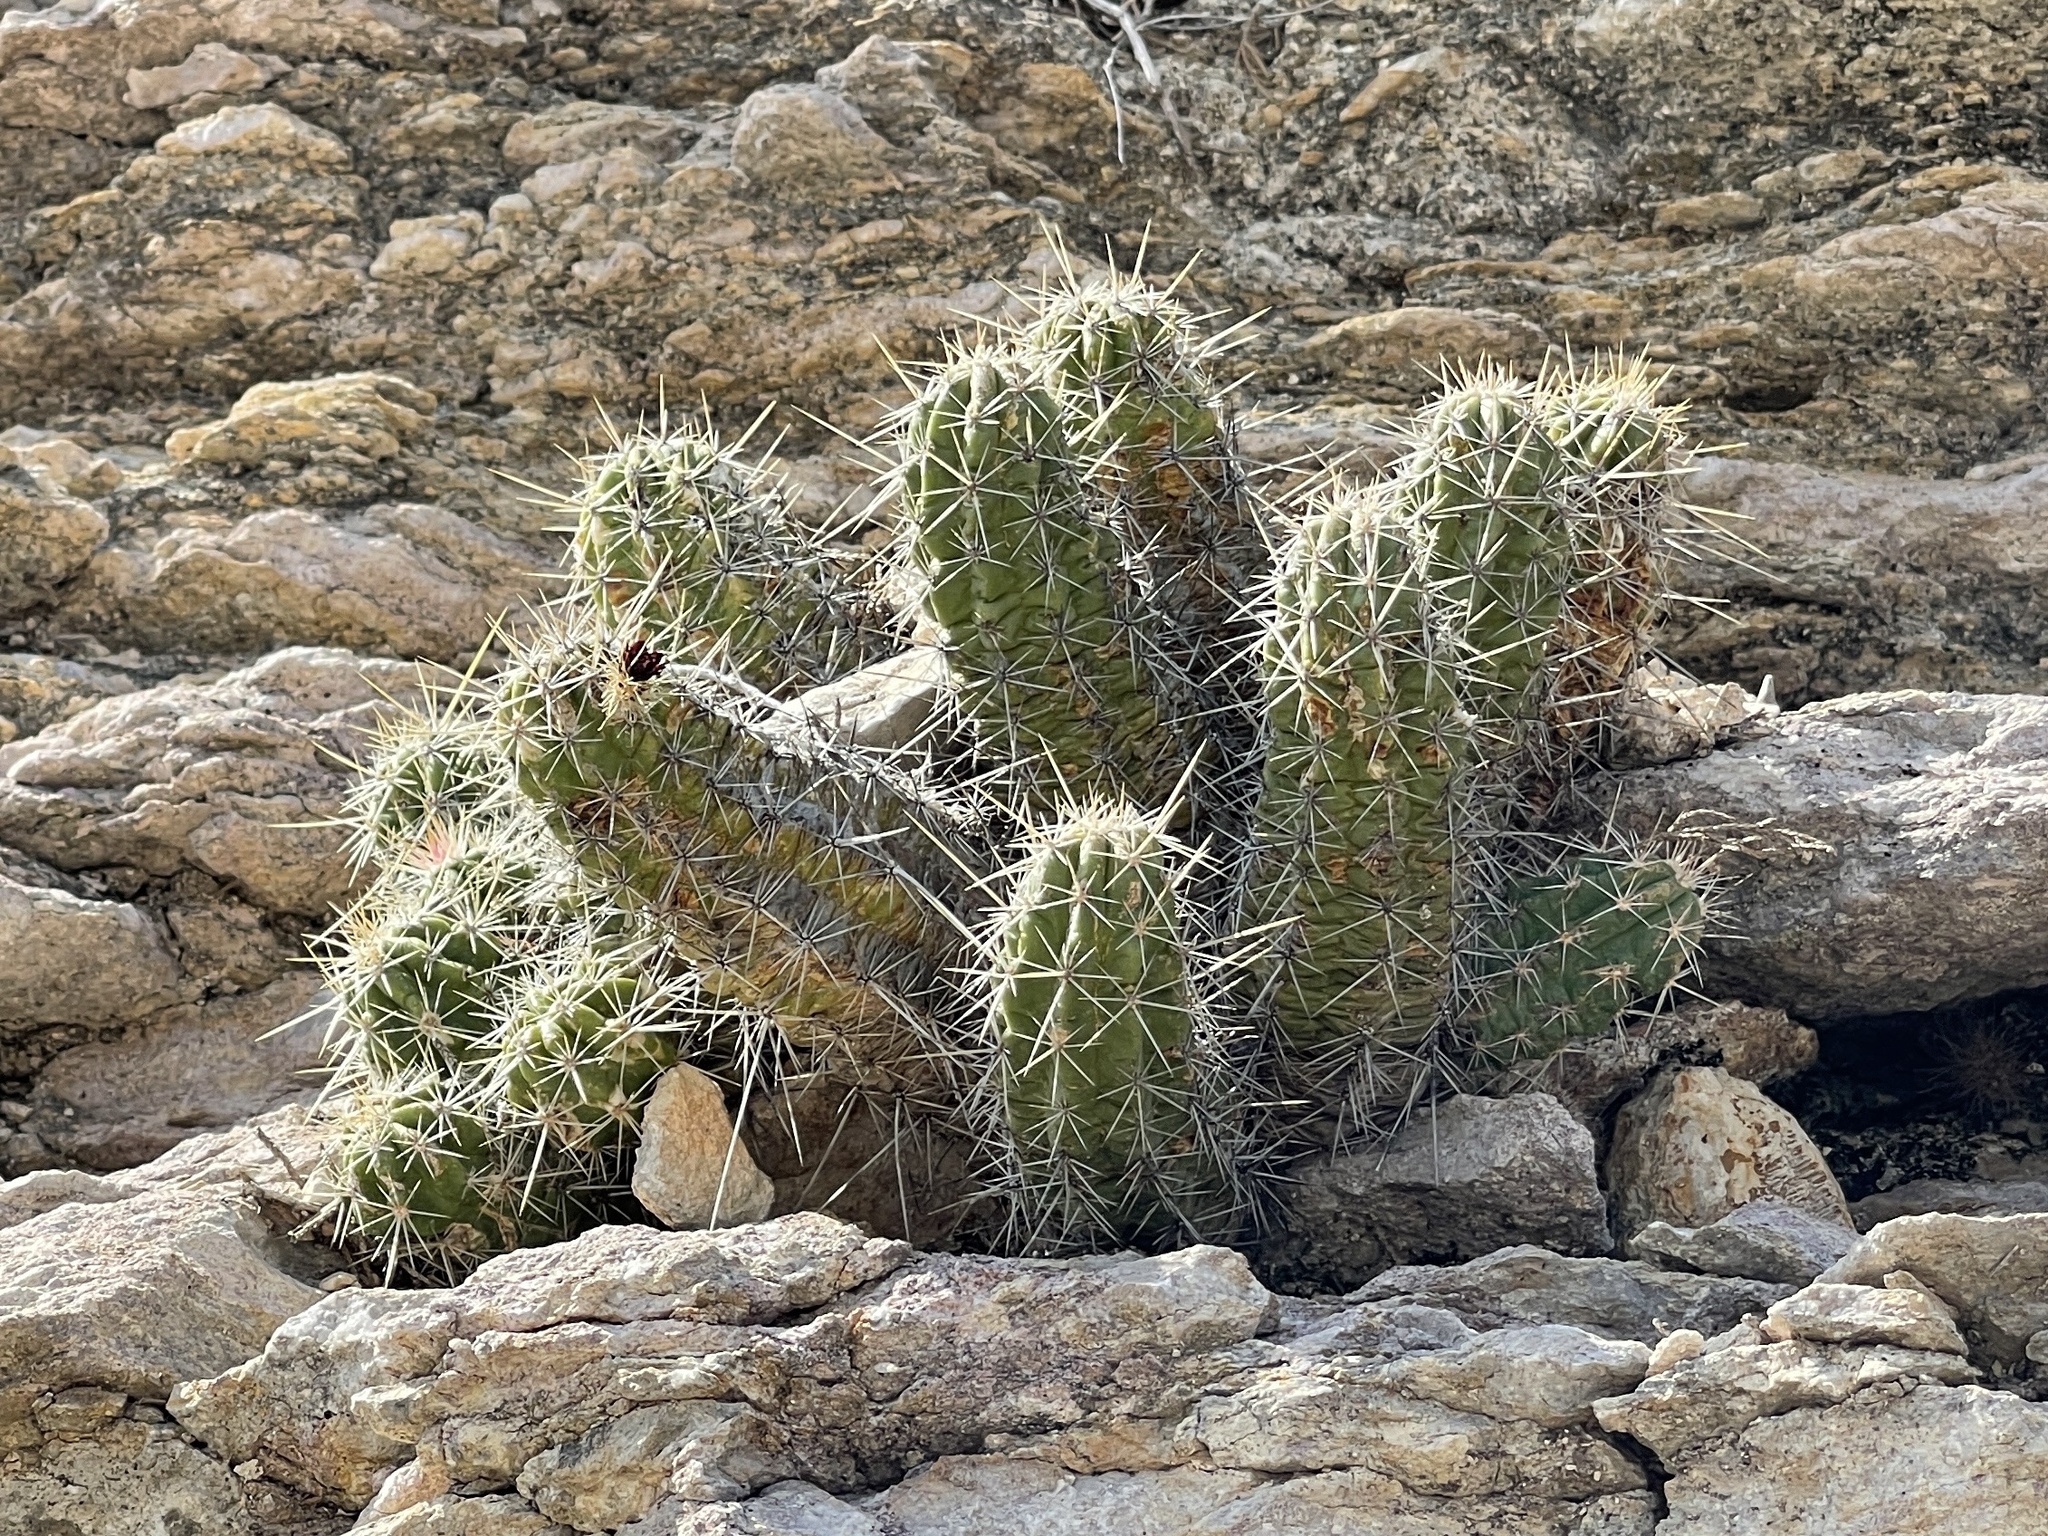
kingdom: Plantae
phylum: Tracheophyta
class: Magnoliopsida
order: Caryophyllales
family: Cactaceae
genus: Echinocereus
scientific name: Echinocereus enneacanthus
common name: Pitaya
